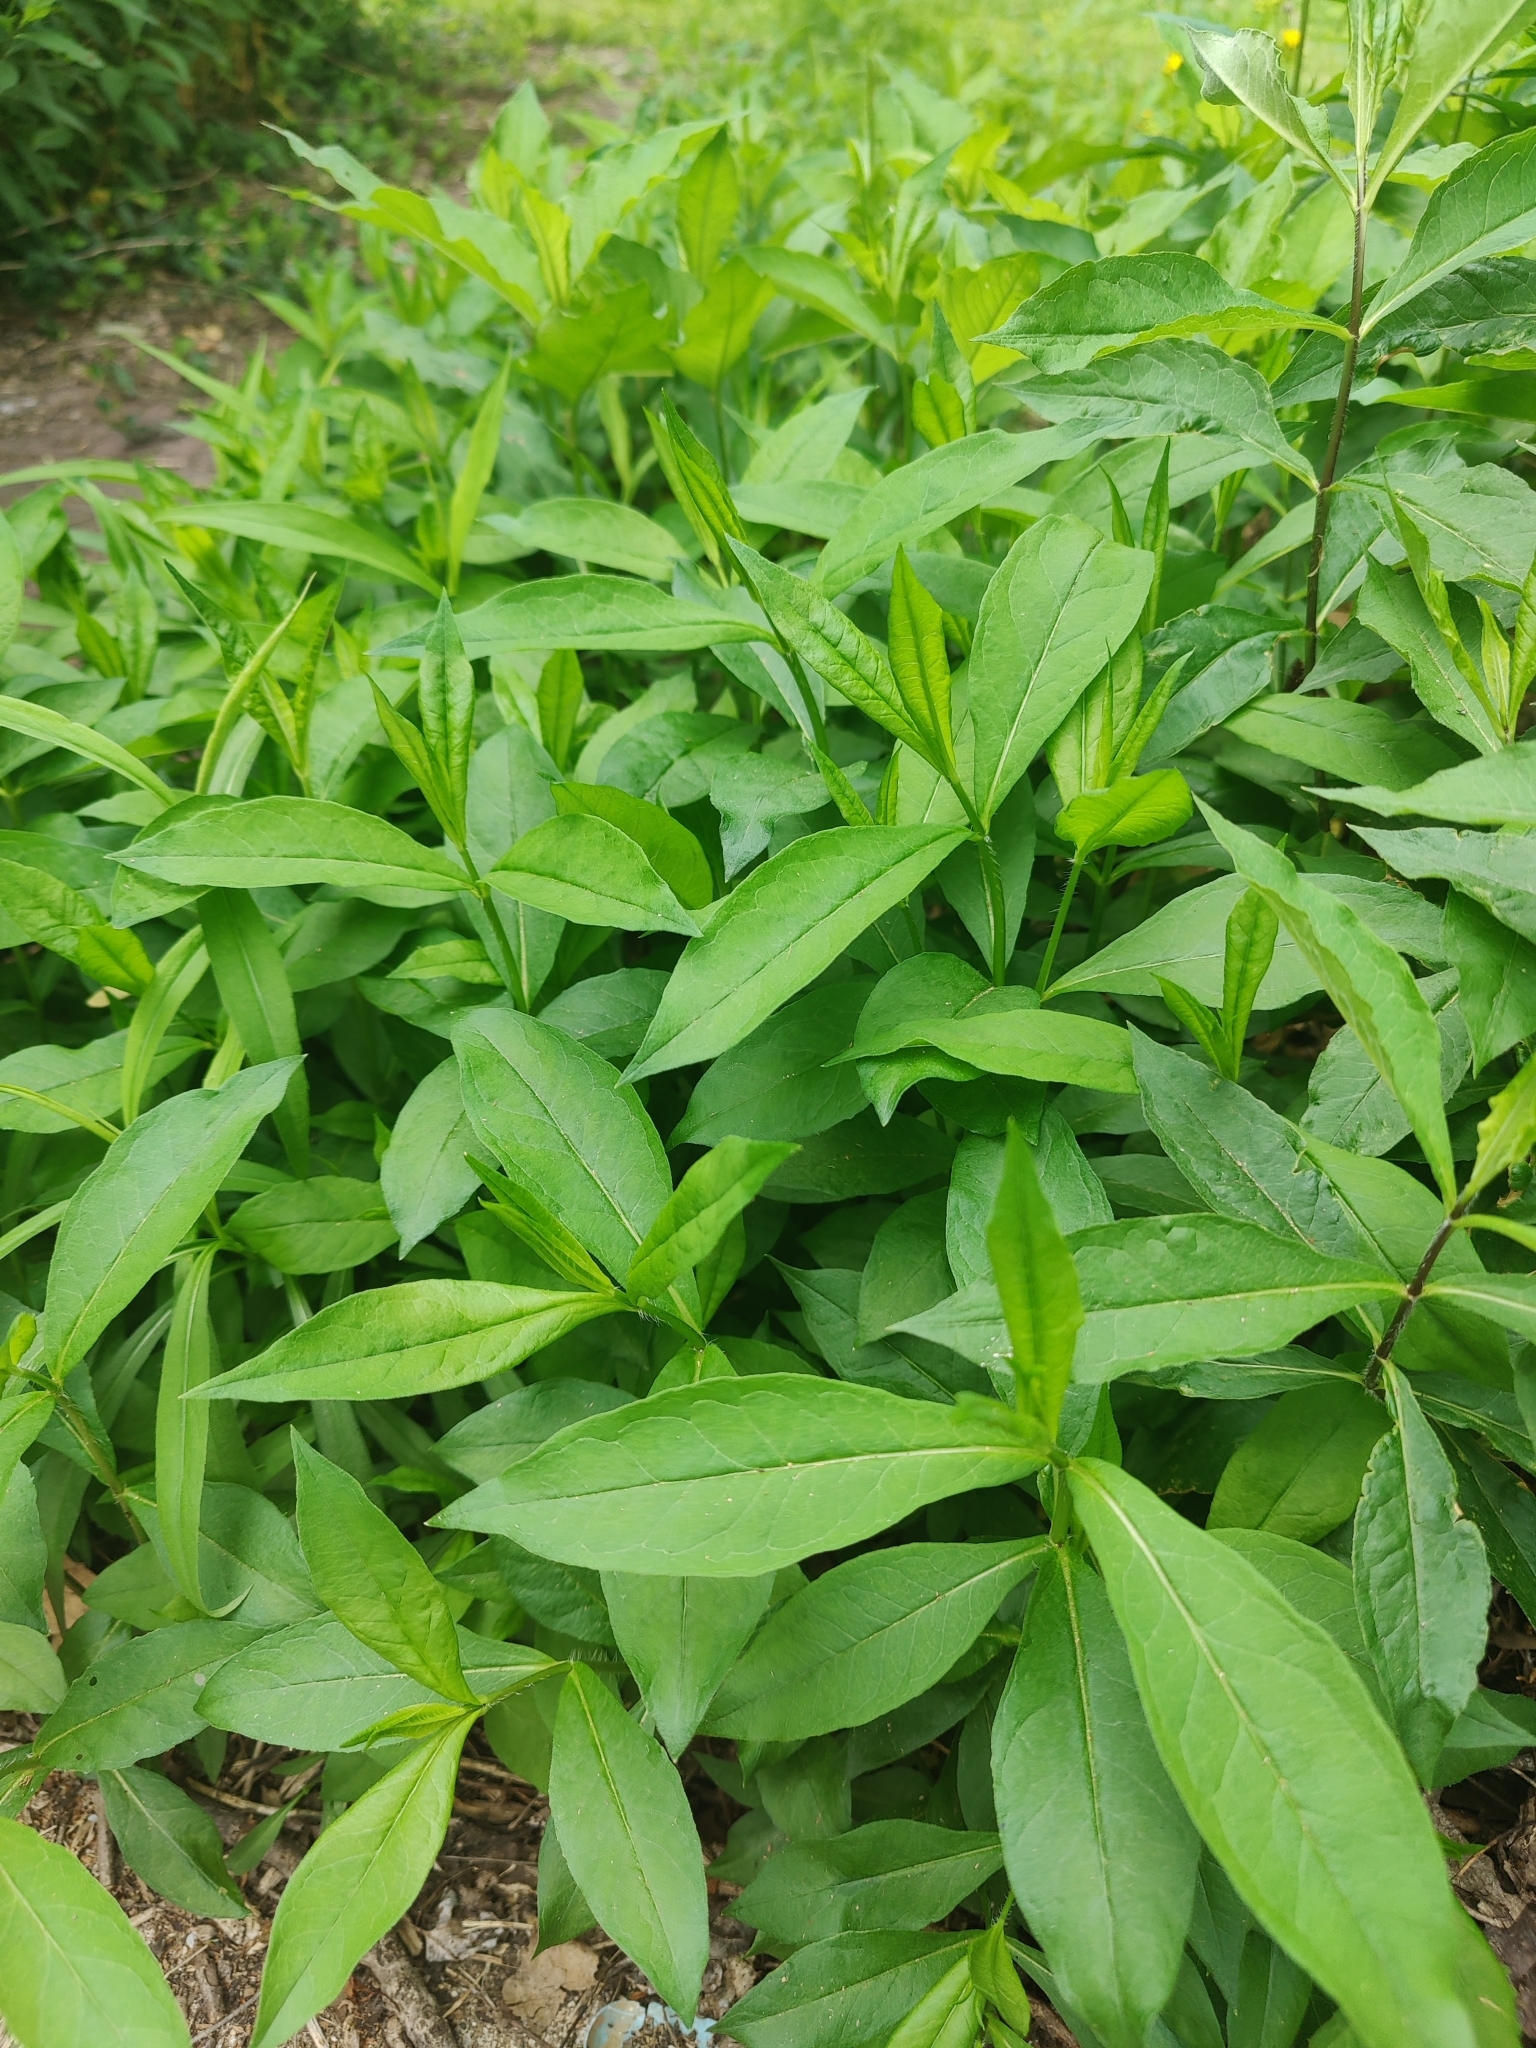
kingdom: Plantae
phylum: Tracheophyta
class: Magnoliopsida
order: Ericales
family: Polemoniaceae
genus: Phlox
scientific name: Phlox paniculata
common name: Fall phlox
